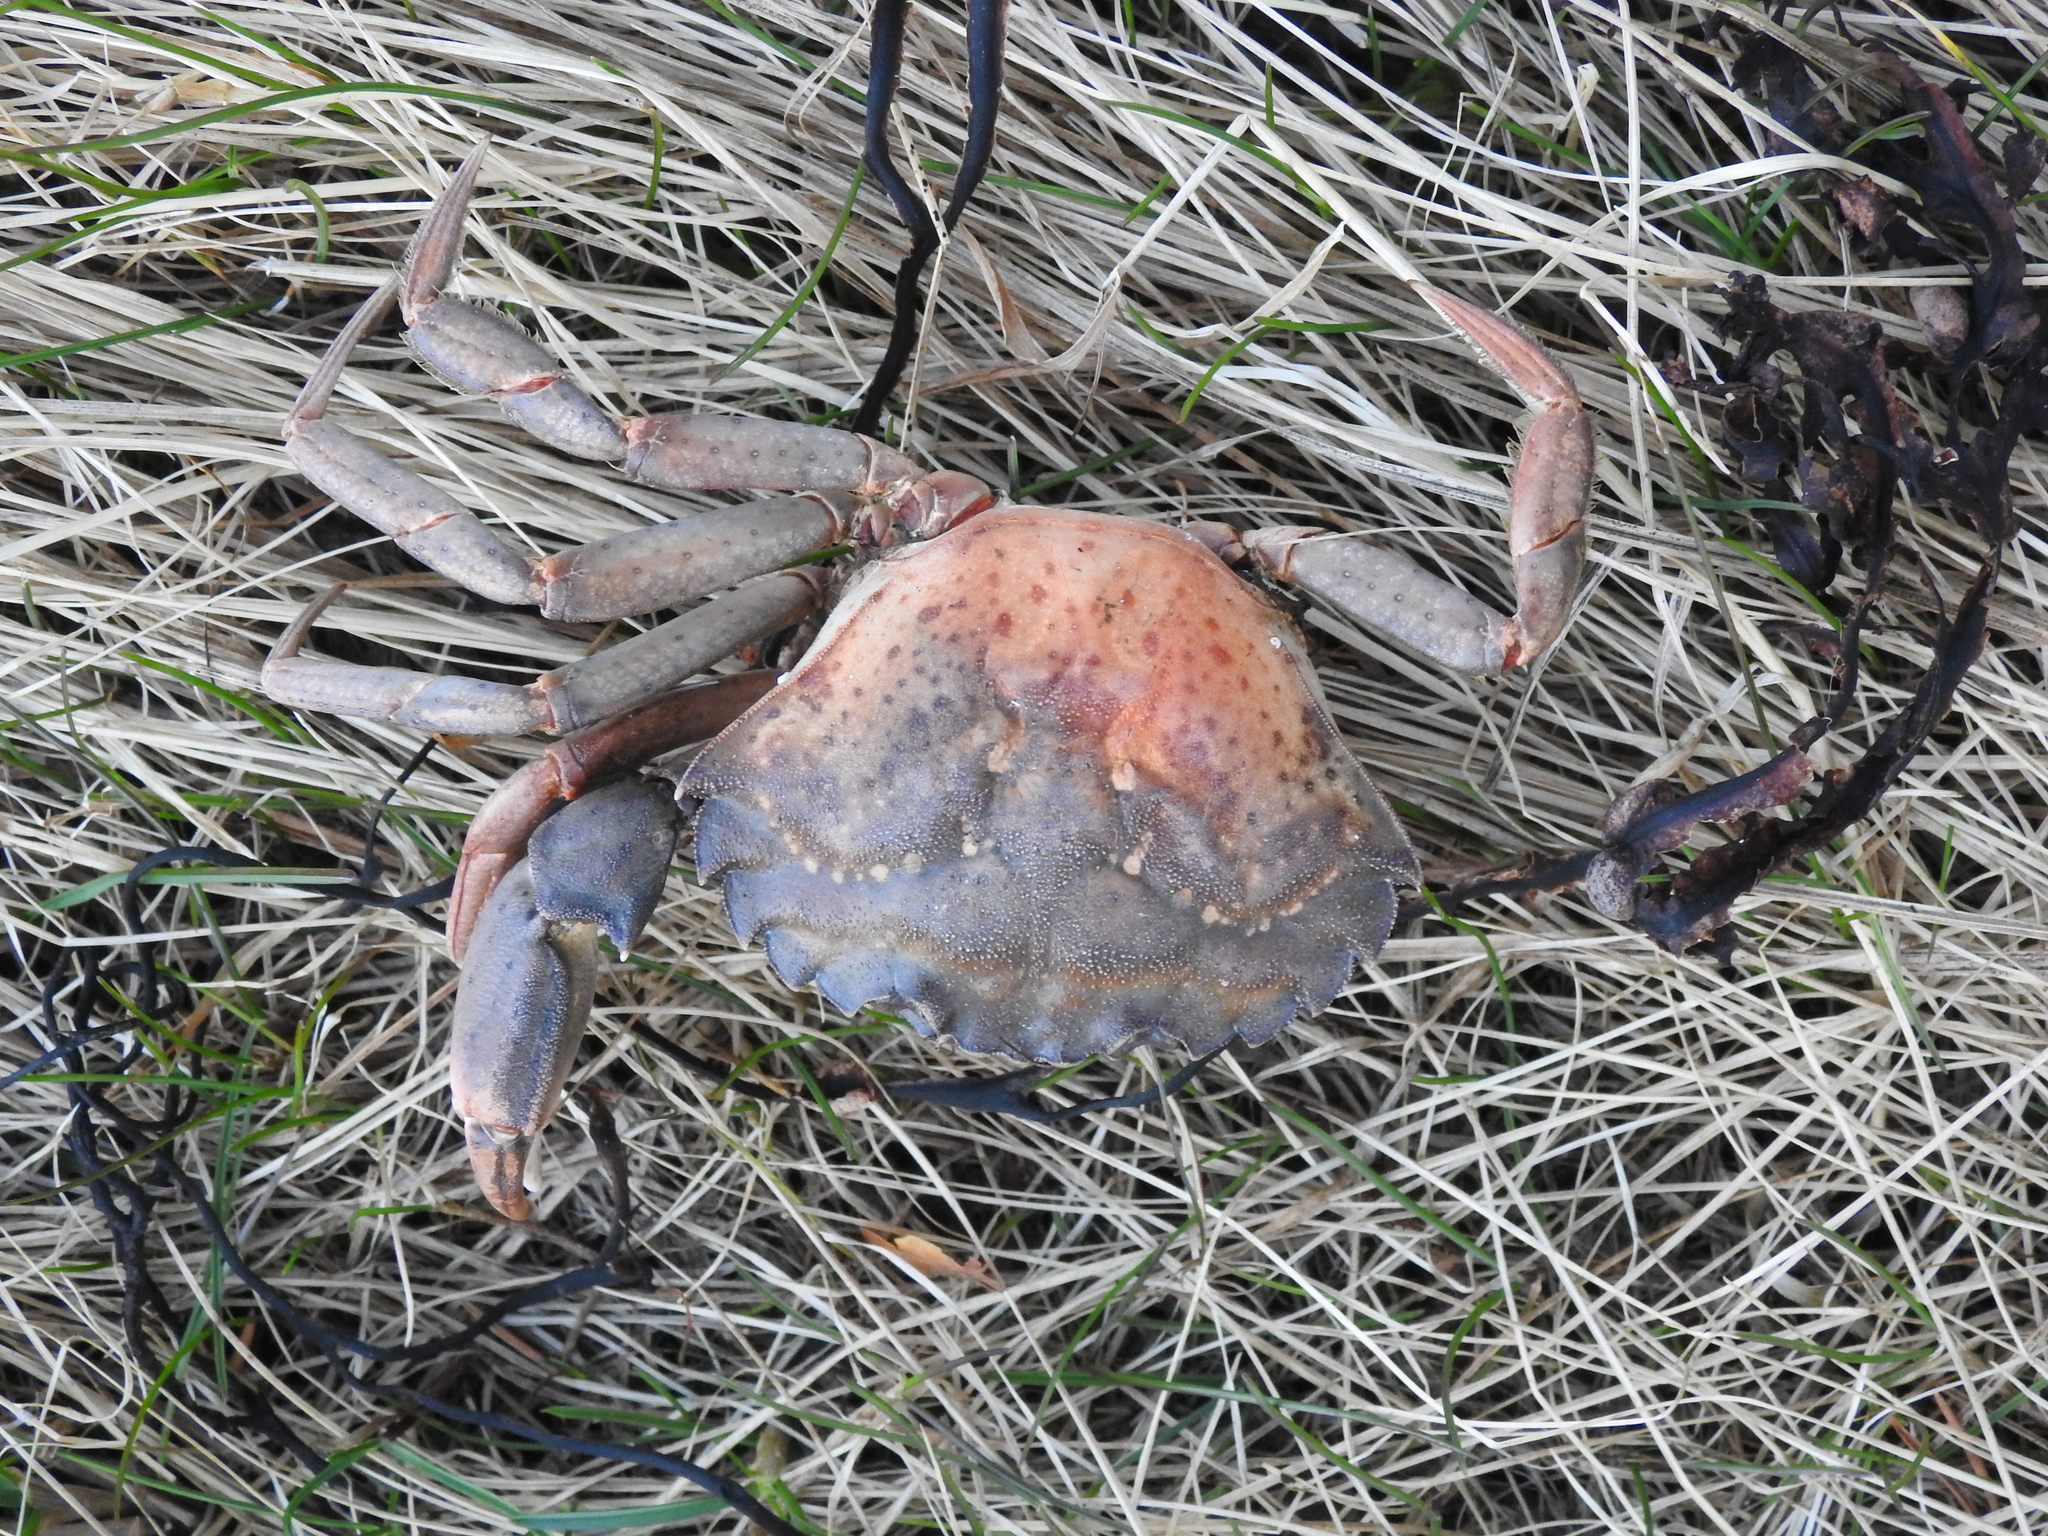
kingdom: Animalia
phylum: Arthropoda
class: Malacostraca
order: Decapoda
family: Carcinidae
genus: Carcinus
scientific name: Carcinus maenas
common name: European green crab
